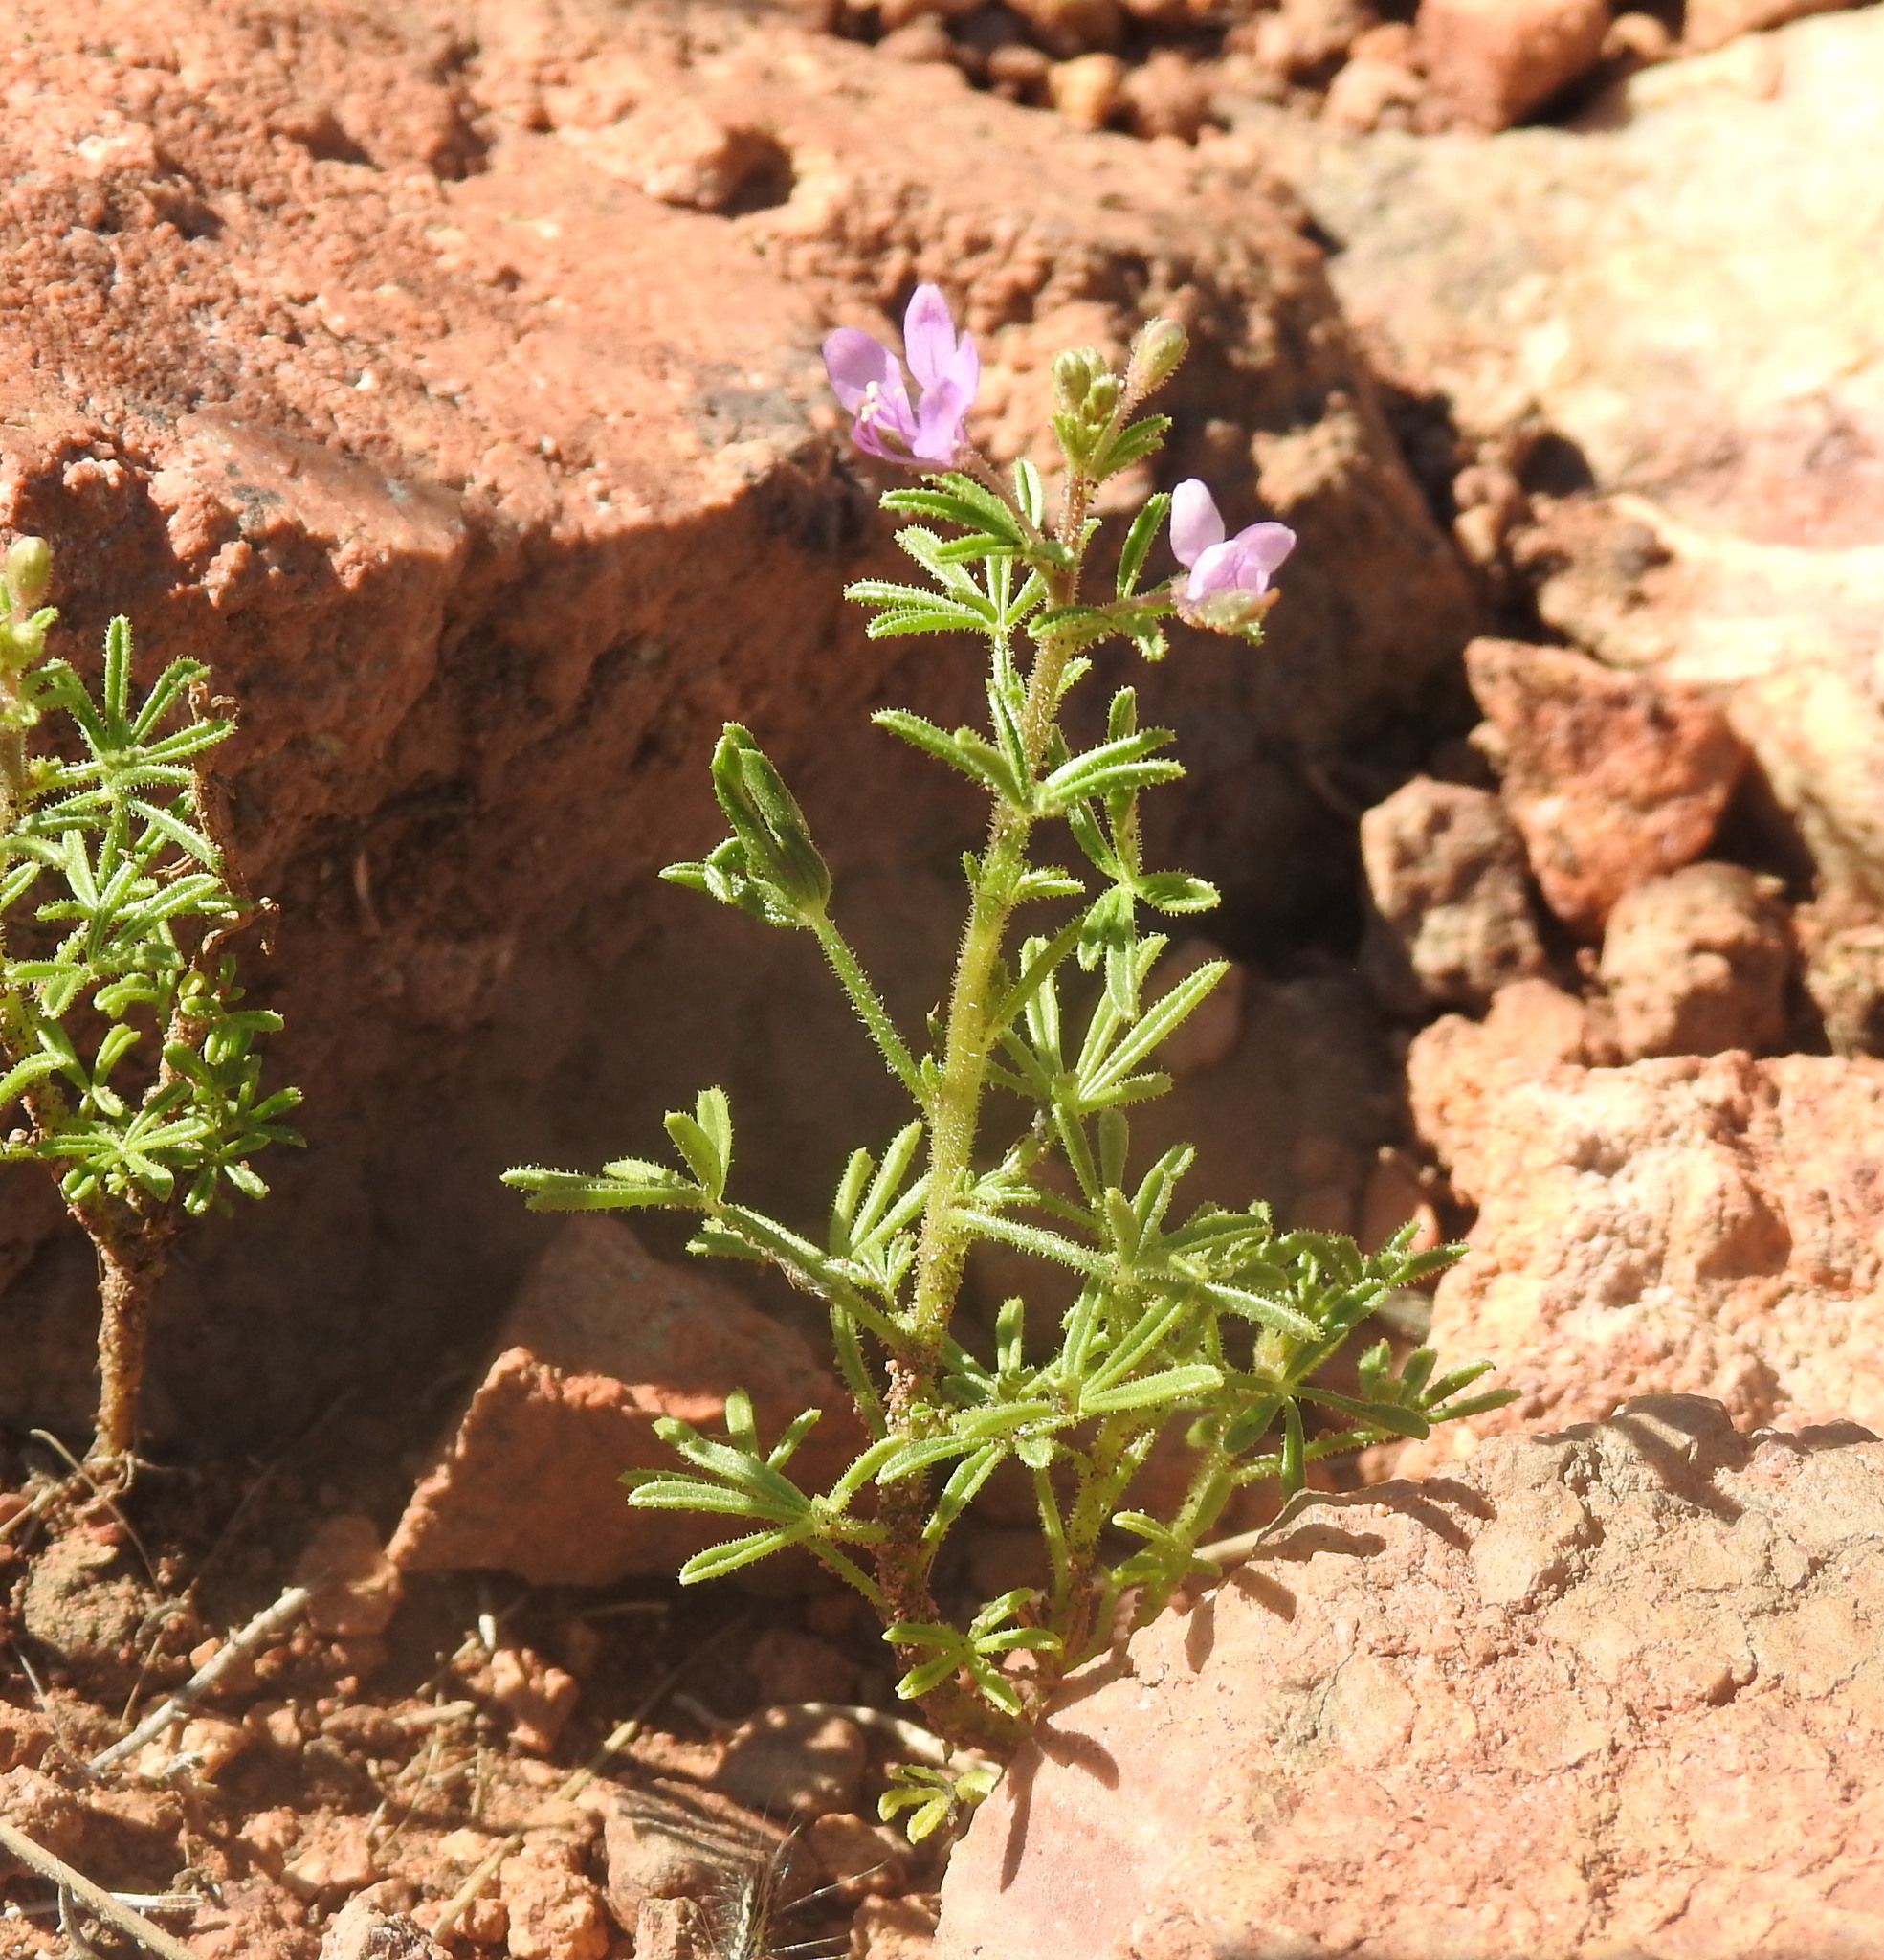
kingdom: Plantae
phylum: Tracheophyta
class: Magnoliopsida
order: Brassicales
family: Cleomaceae
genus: Sieruela
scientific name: Sieruela rubella
